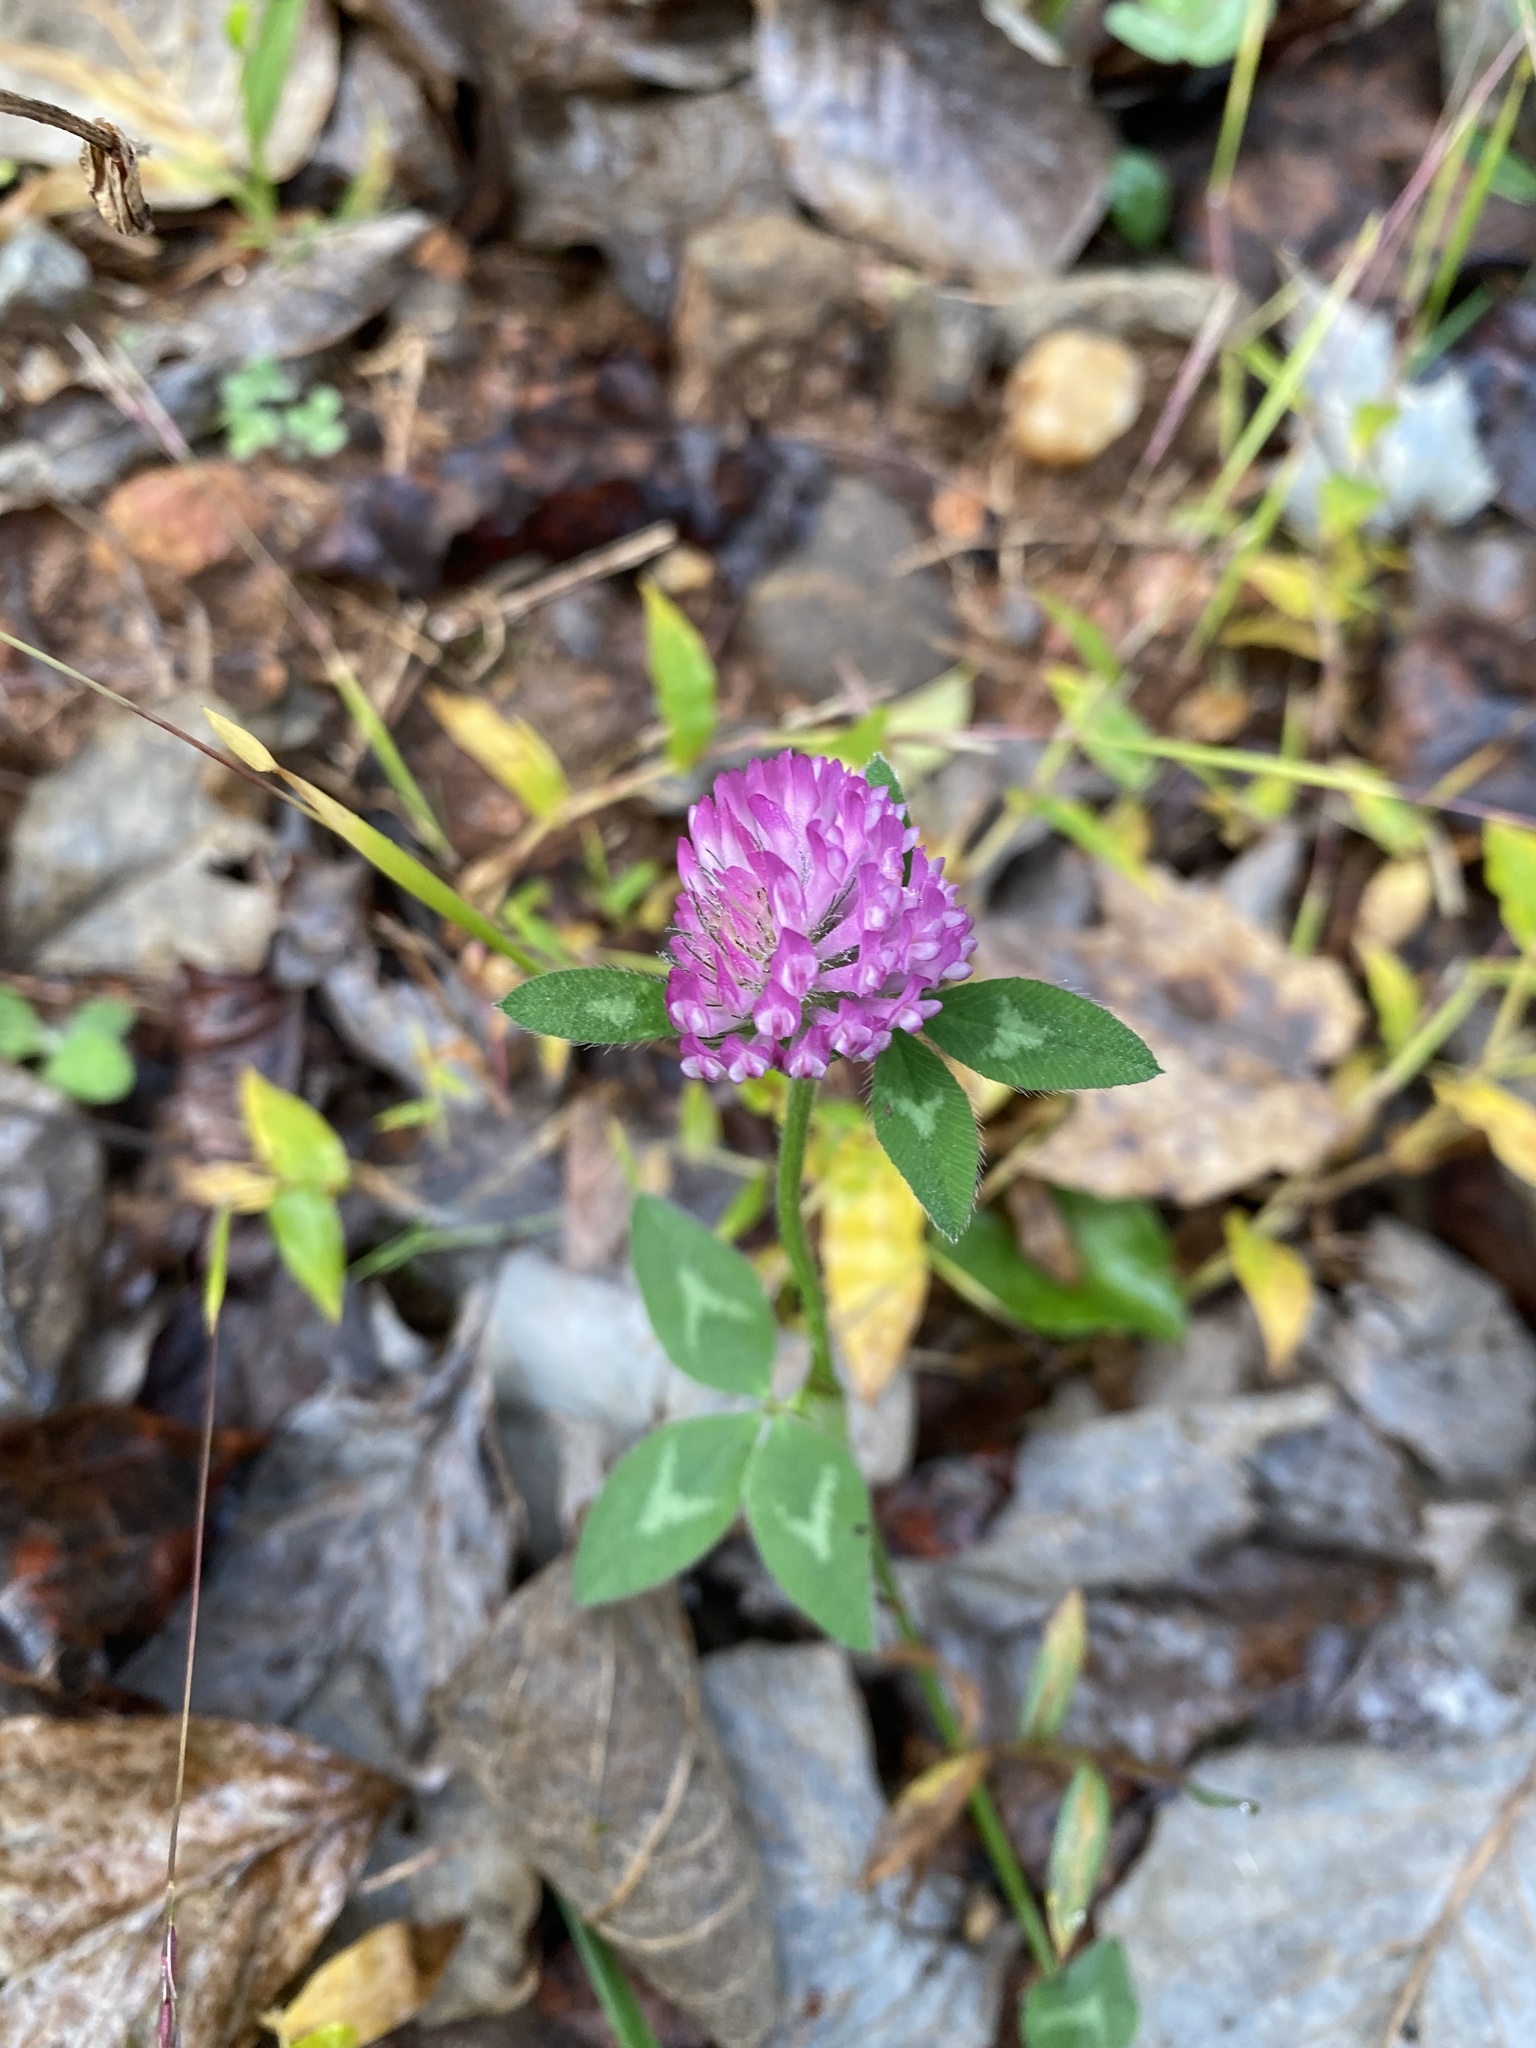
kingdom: Plantae
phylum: Tracheophyta
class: Magnoliopsida
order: Fabales
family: Fabaceae
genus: Trifolium
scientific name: Trifolium pratense
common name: Red clover
